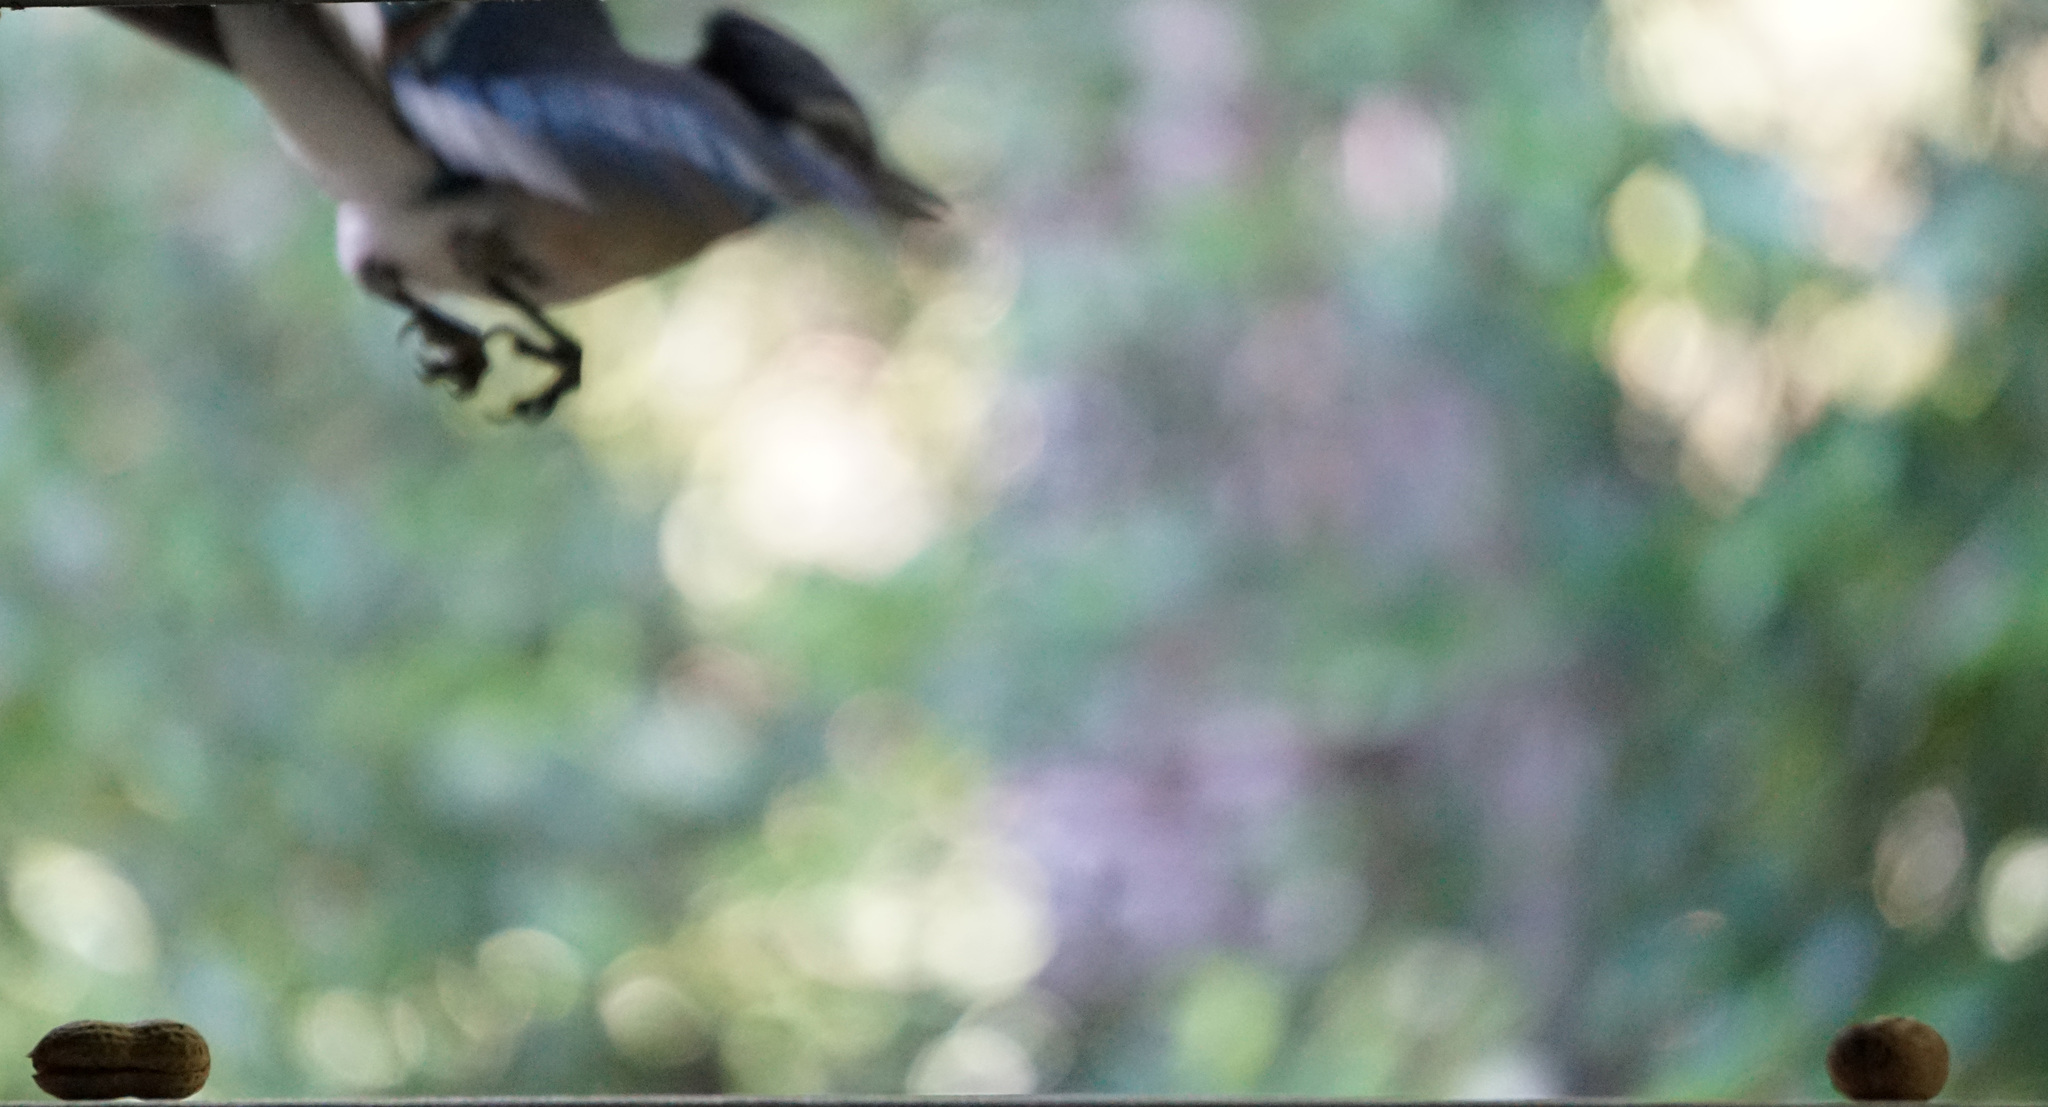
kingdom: Animalia
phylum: Chordata
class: Aves
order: Passeriformes
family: Corvidae
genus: Cyanocitta
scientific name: Cyanocitta cristata
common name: Blue jay
